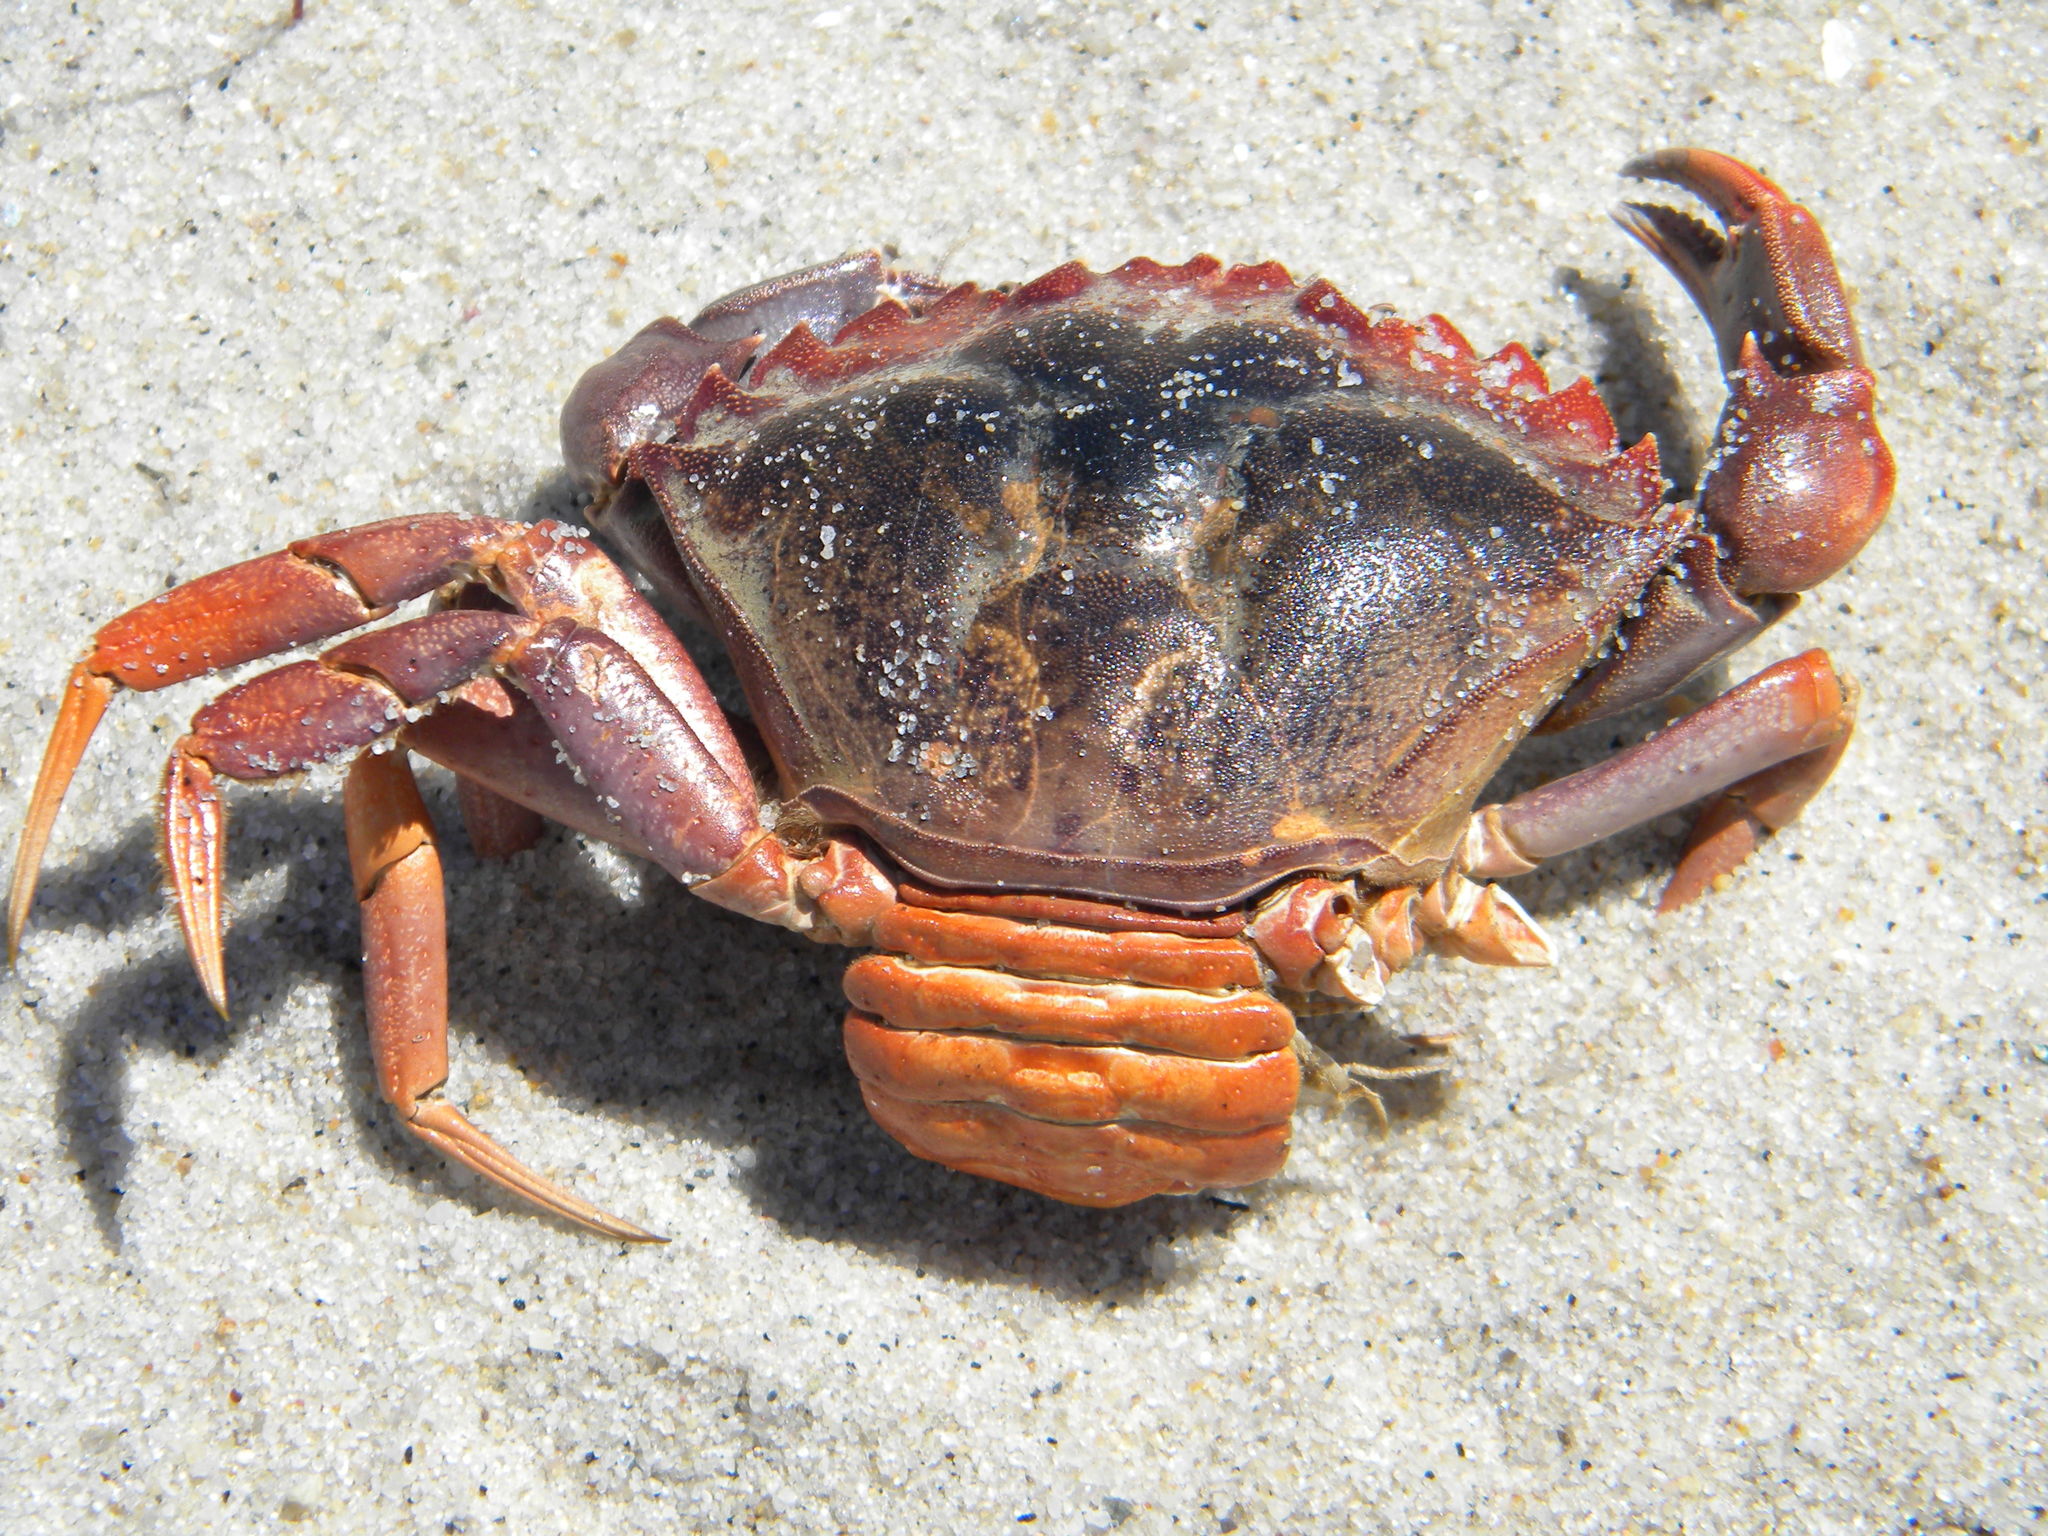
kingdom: Animalia
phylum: Arthropoda
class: Malacostraca
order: Decapoda
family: Carcinidae
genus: Carcinus
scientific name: Carcinus maenas
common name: European green crab
